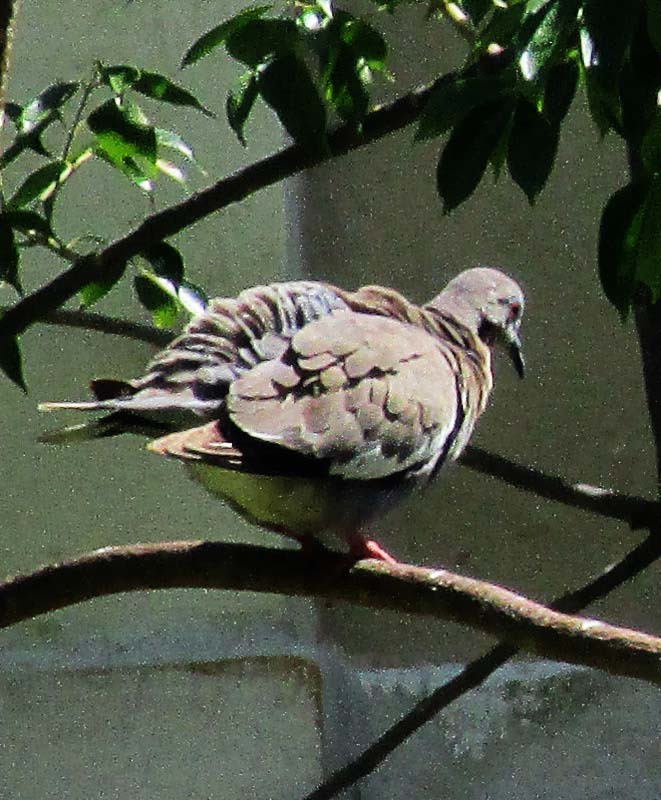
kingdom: Animalia
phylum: Chordata
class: Aves
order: Columbiformes
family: Columbidae
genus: Zenaida
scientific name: Zenaida asiatica
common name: White-winged dove
